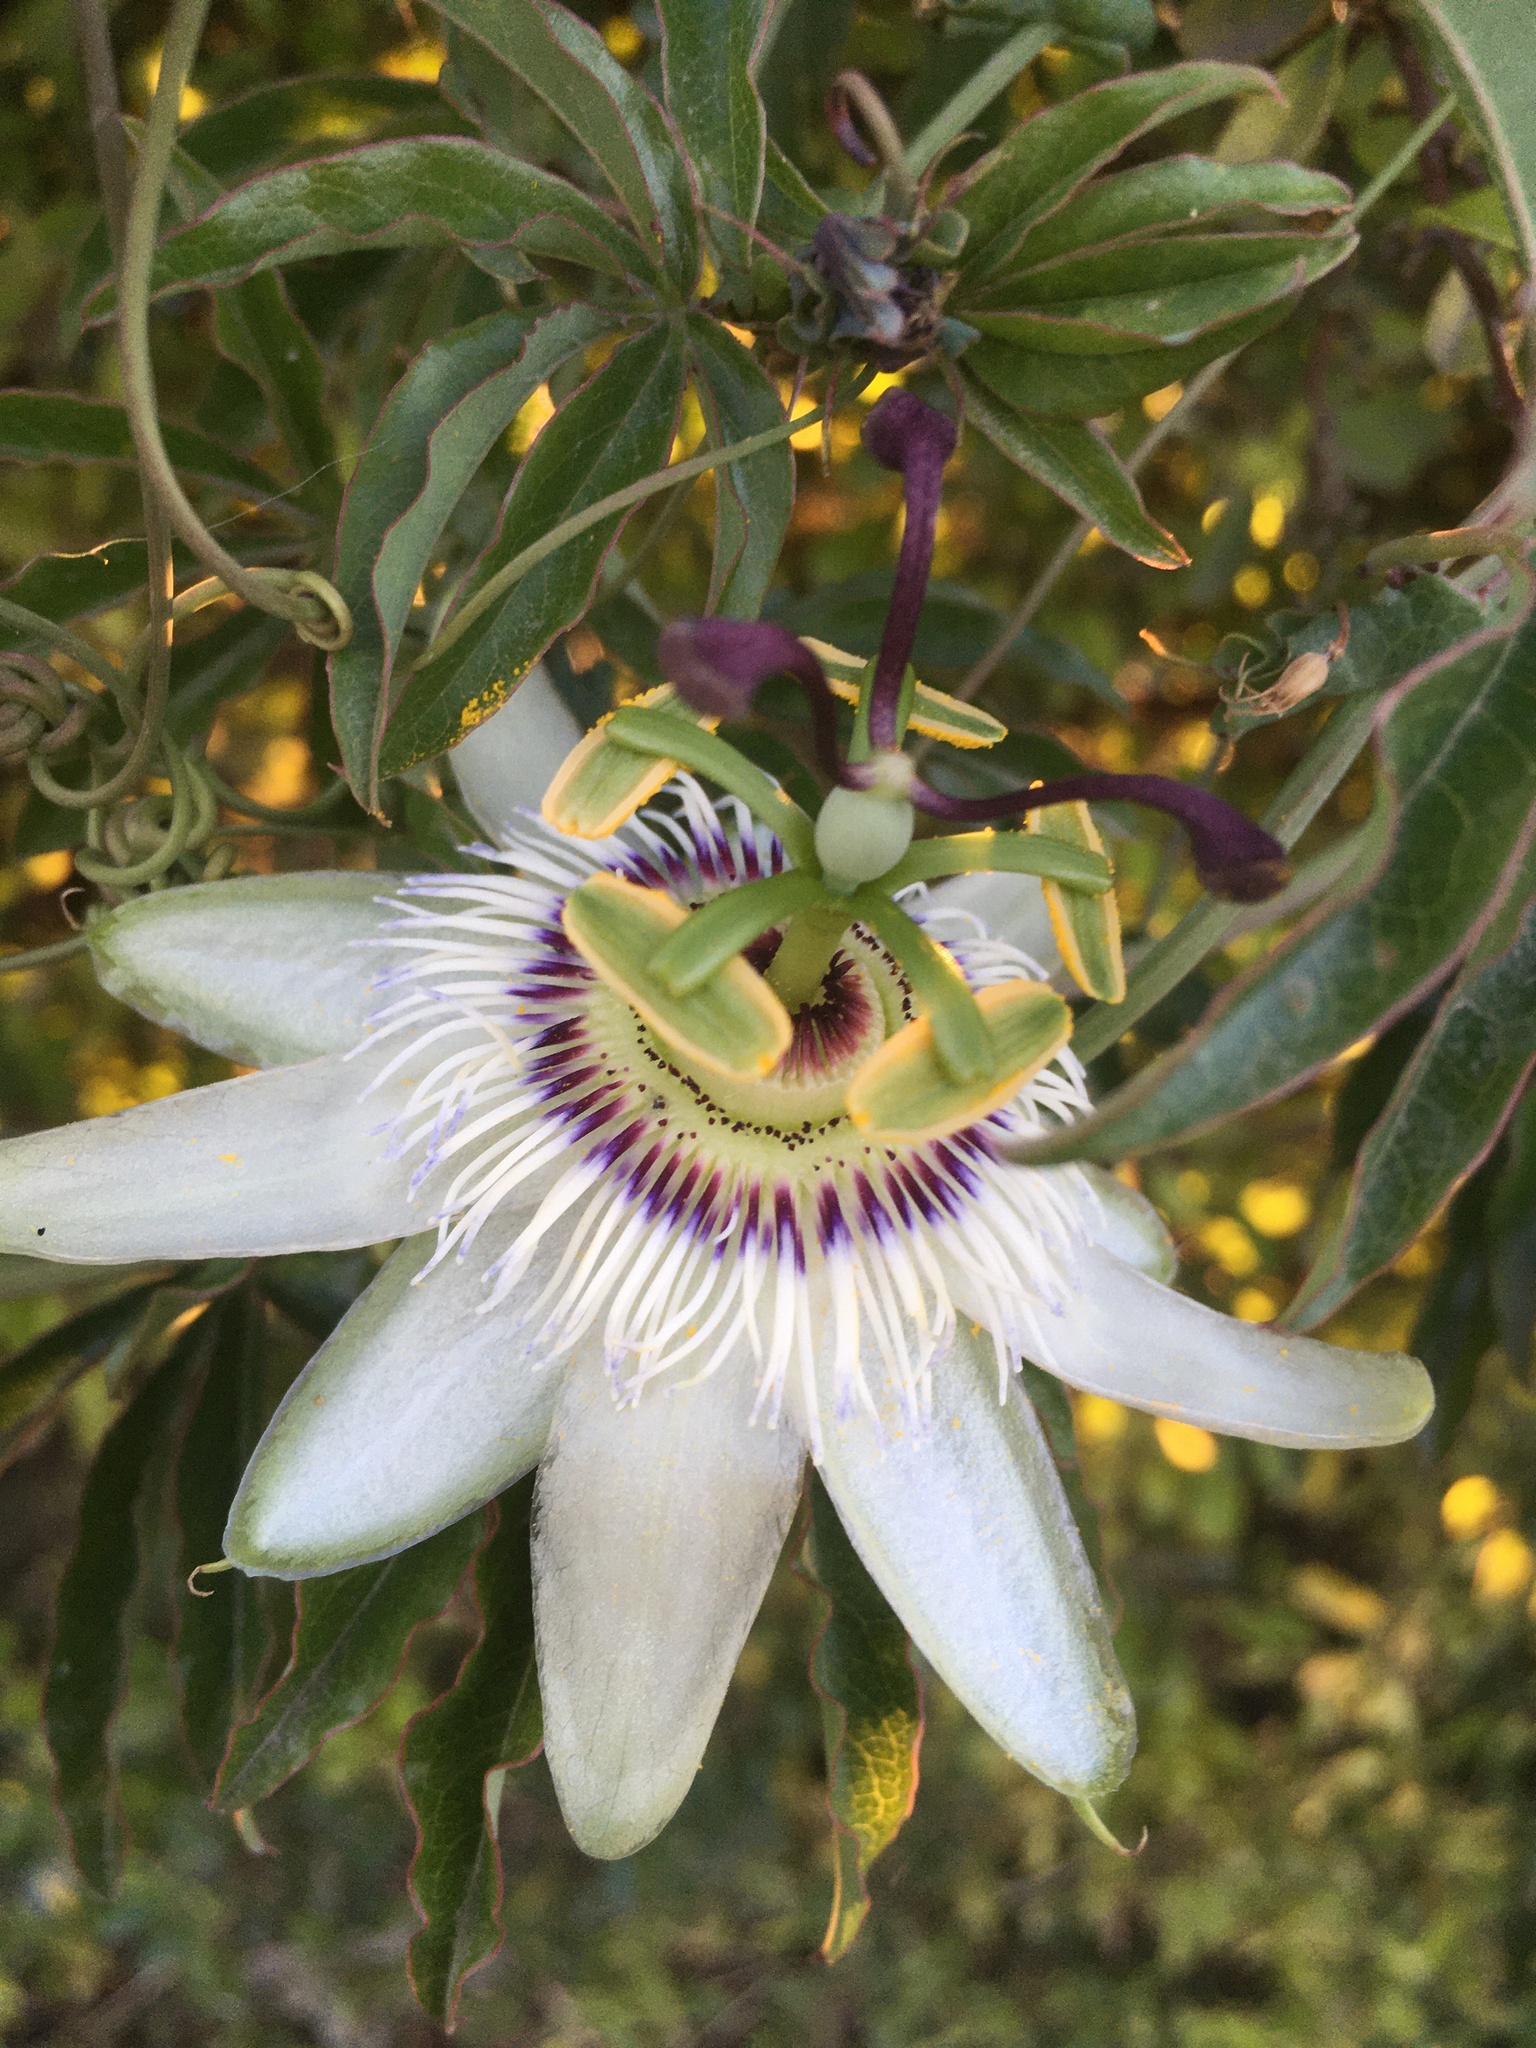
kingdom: Plantae
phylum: Tracheophyta
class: Magnoliopsida
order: Malpighiales
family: Passifloraceae
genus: Passiflora
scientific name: Passiflora caerulea
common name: Blue passionflower
